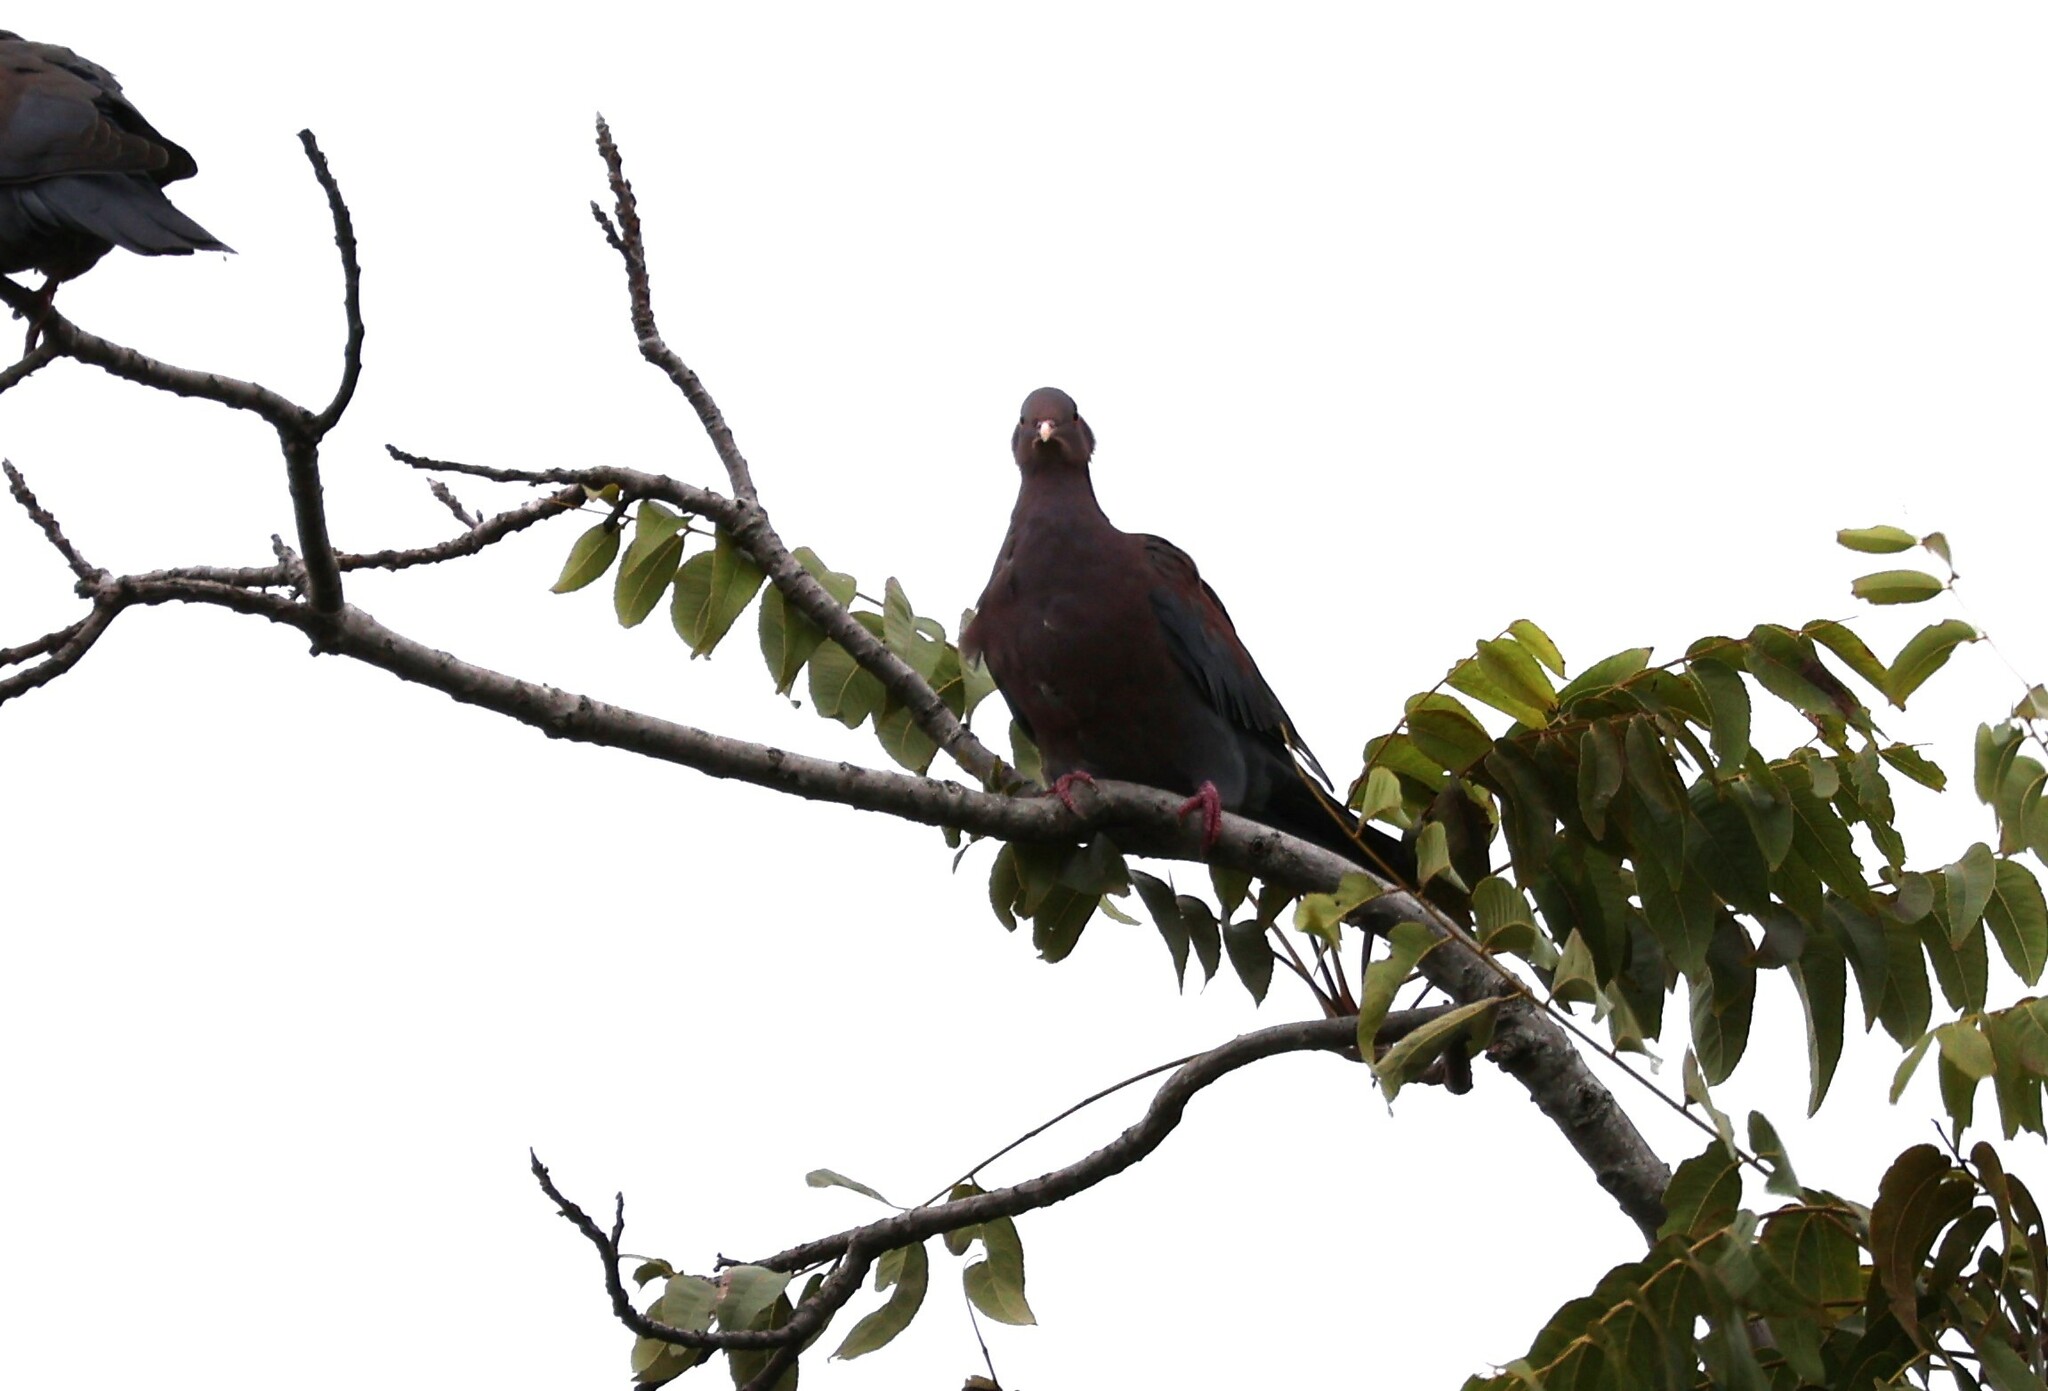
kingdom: Animalia
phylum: Chordata
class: Aves
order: Columbiformes
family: Columbidae
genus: Patagioenas
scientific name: Patagioenas flavirostris
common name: Red-billed pigeon
